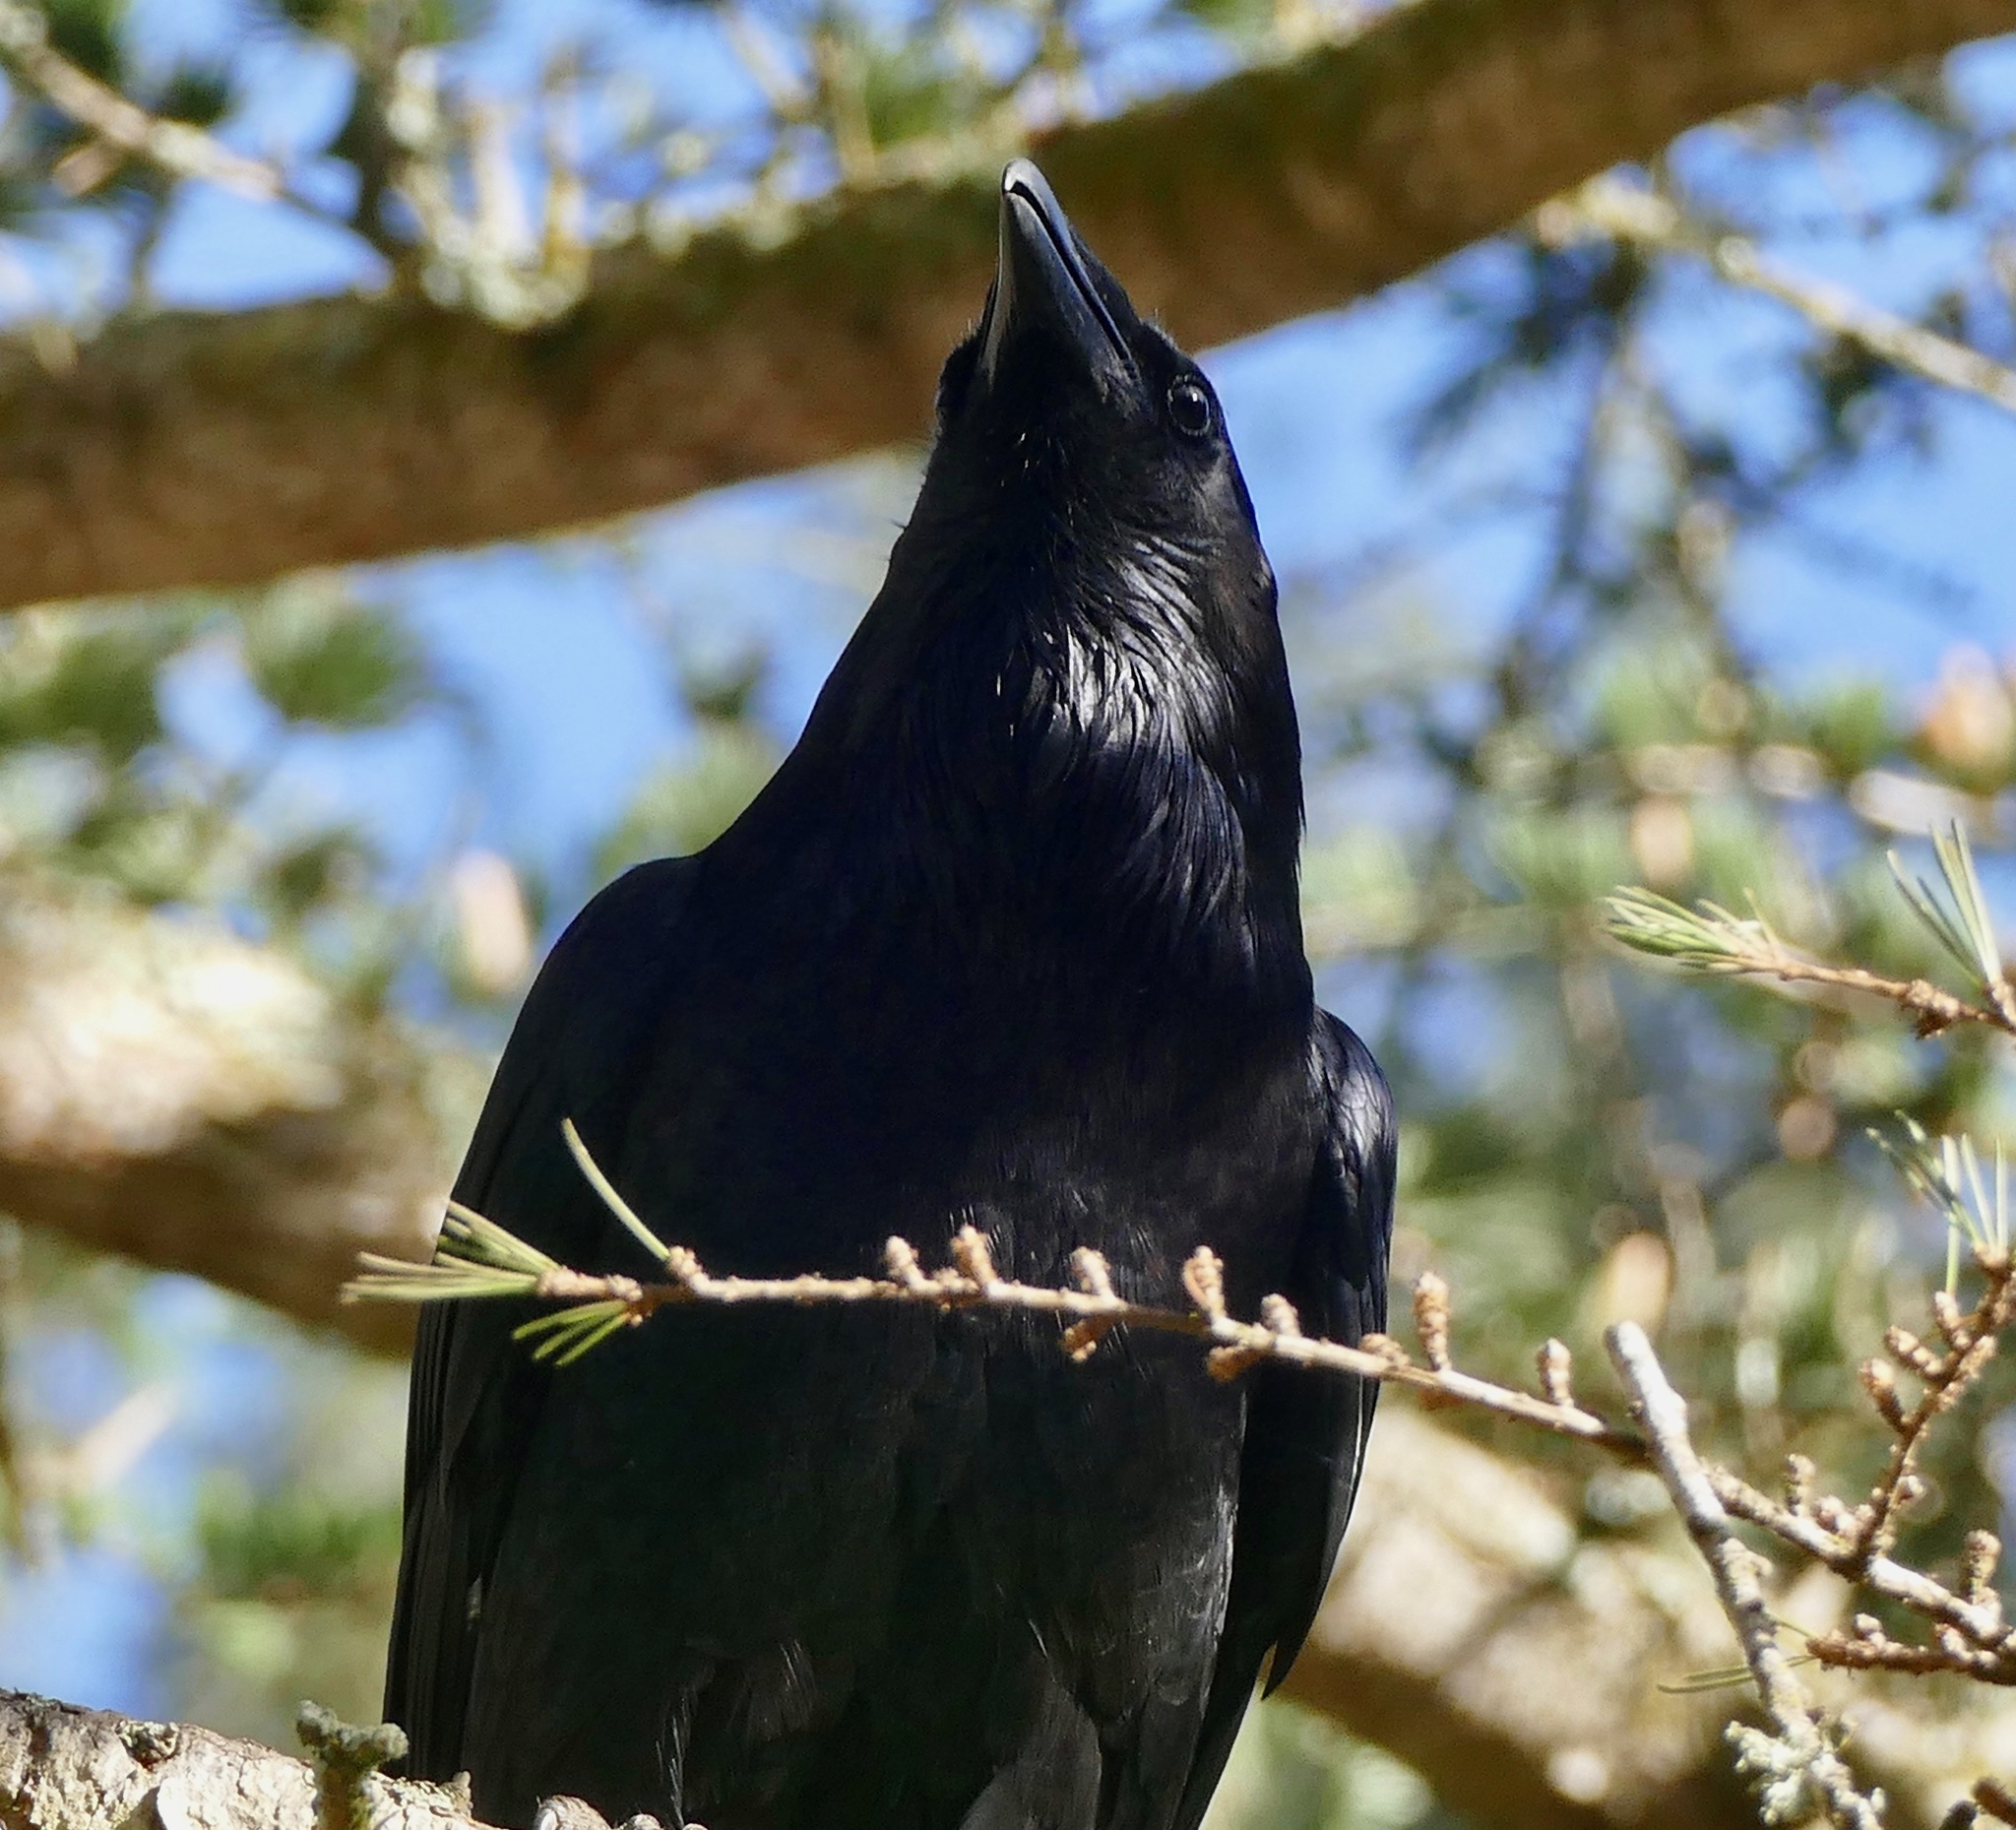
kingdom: Animalia
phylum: Chordata
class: Aves
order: Passeriformes
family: Corvidae
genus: Corvus
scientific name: Corvus corax
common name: Common raven
